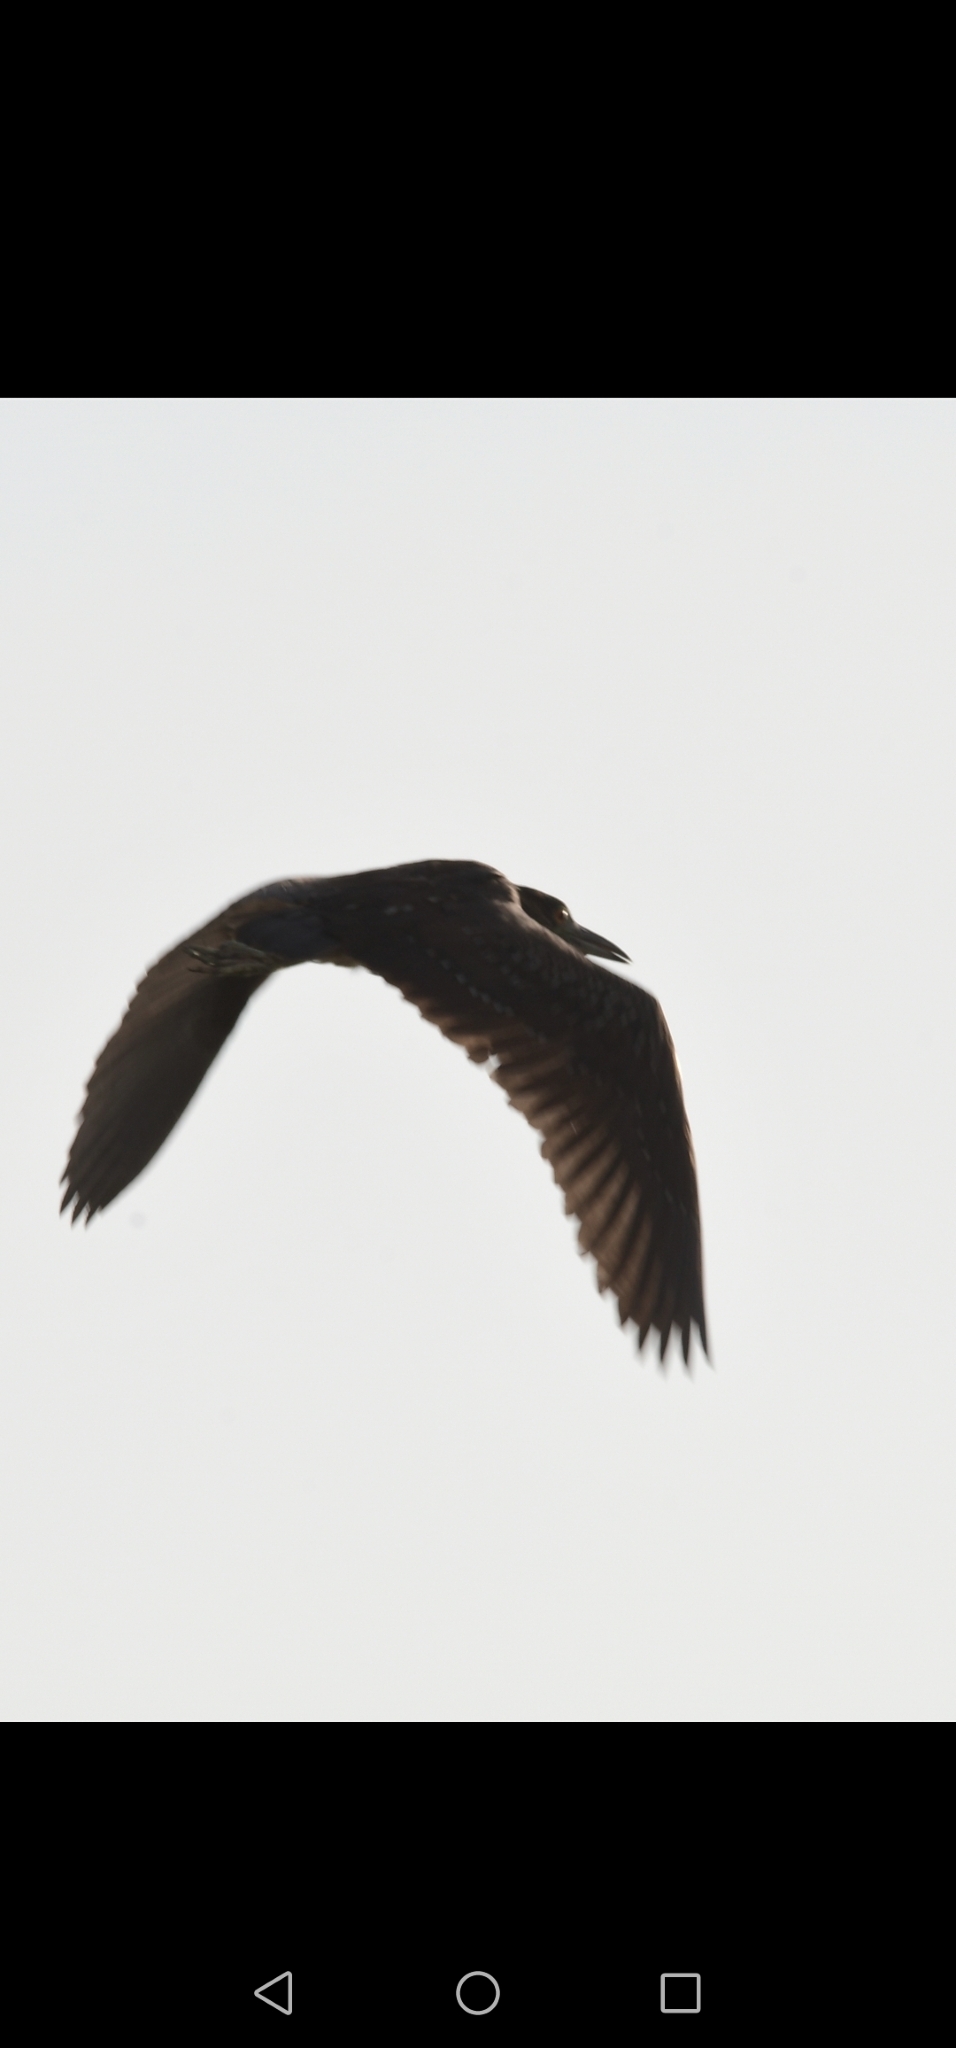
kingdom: Animalia
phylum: Chordata
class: Aves
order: Pelecaniformes
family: Ardeidae
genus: Nycticorax
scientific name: Nycticorax nycticorax
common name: Black-crowned night heron
